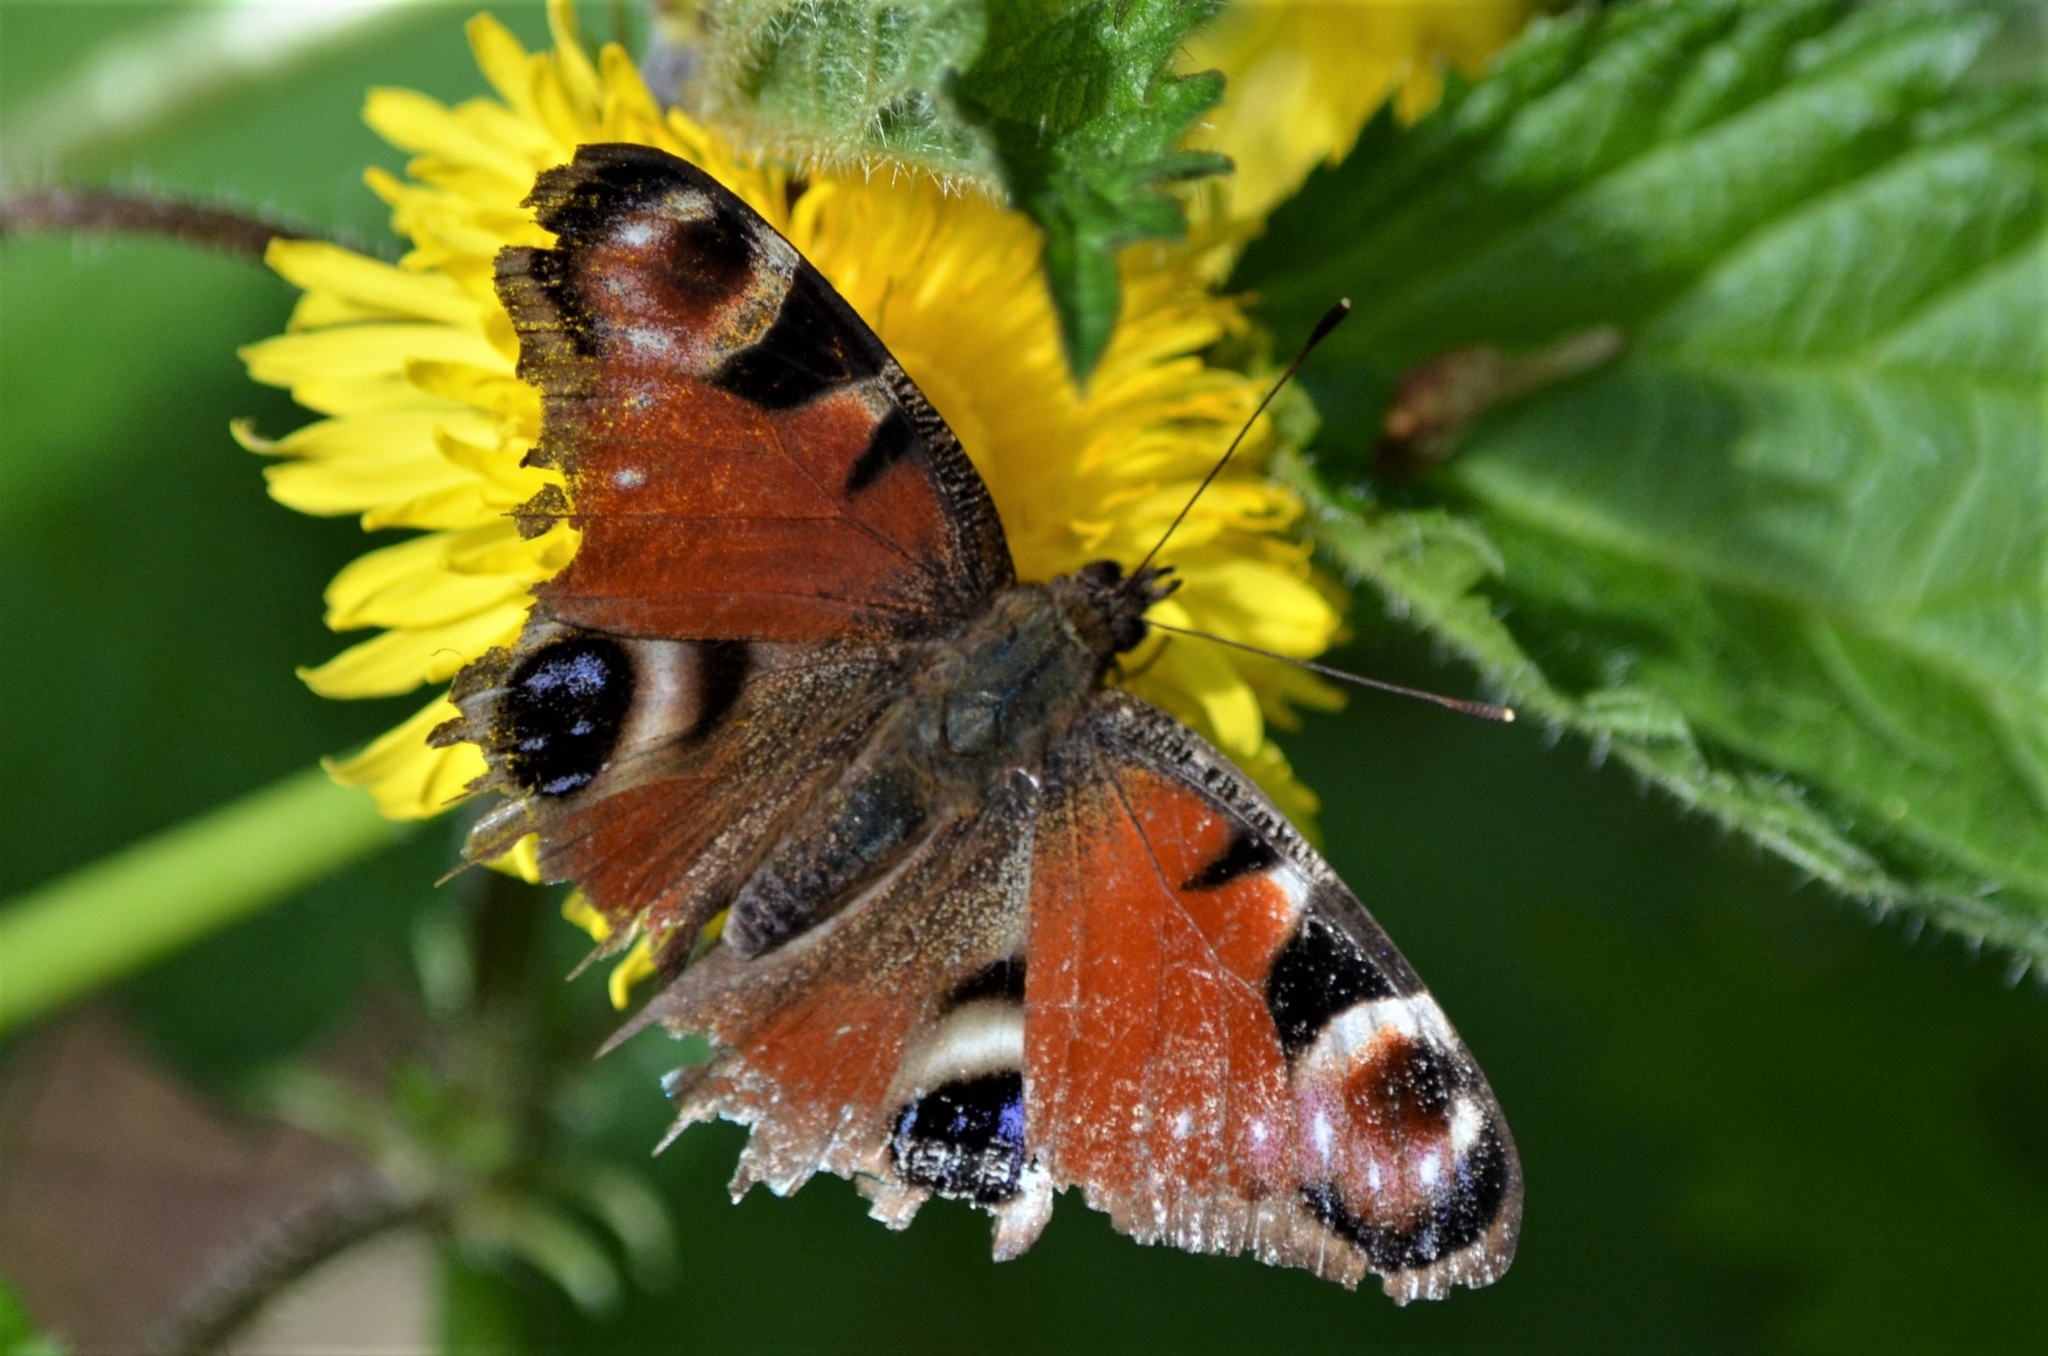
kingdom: Animalia
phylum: Arthropoda
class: Insecta
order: Lepidoptera
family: Nymphalidae
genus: Aglais
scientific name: Aglais io
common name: Peacock
